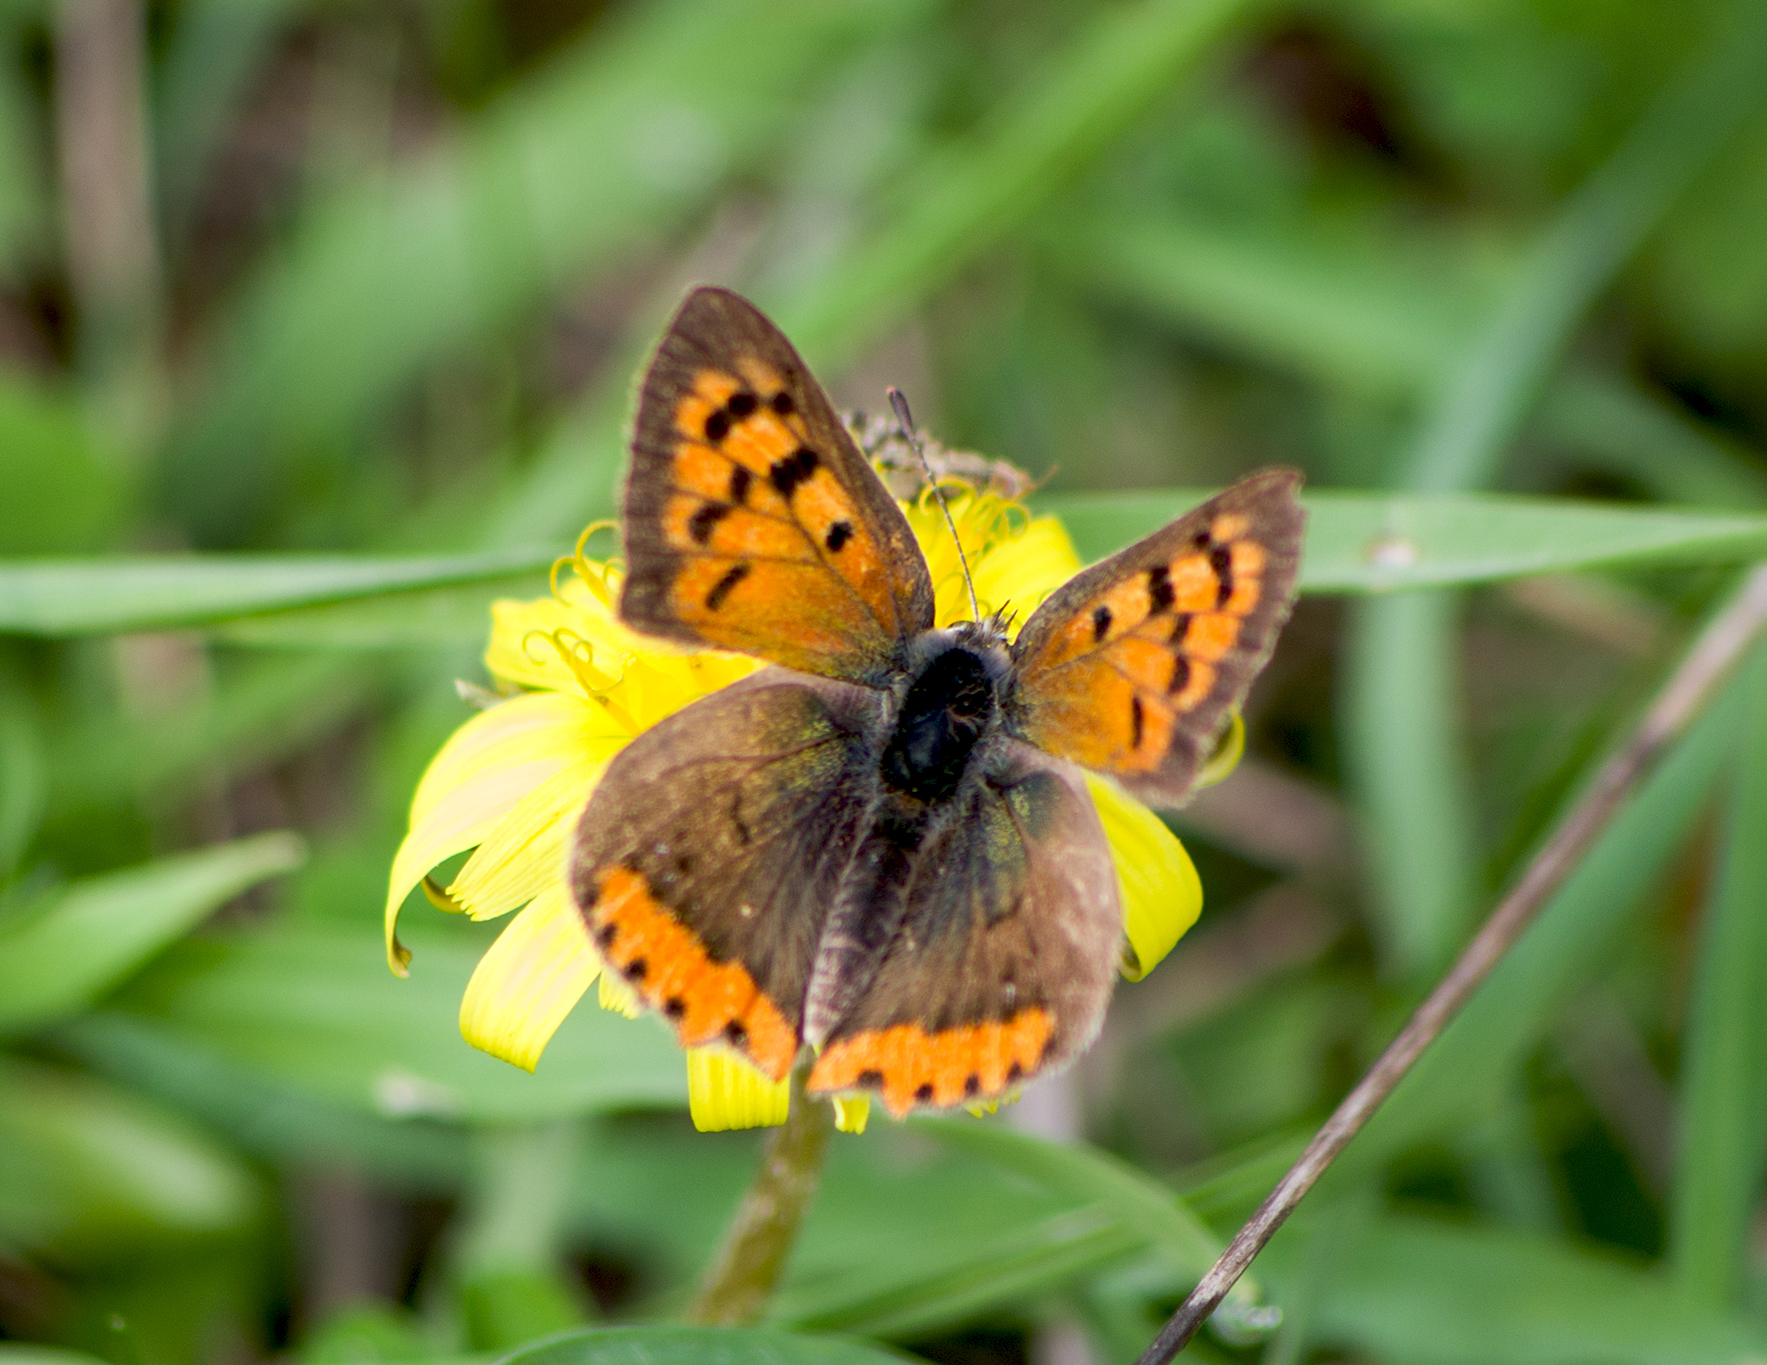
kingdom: Animalia
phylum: Arthropoda
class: Insecta
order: Lepidoptera
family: Lycaenidae
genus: Lycaena
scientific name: Lycaena phlaeas
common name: Small copper
